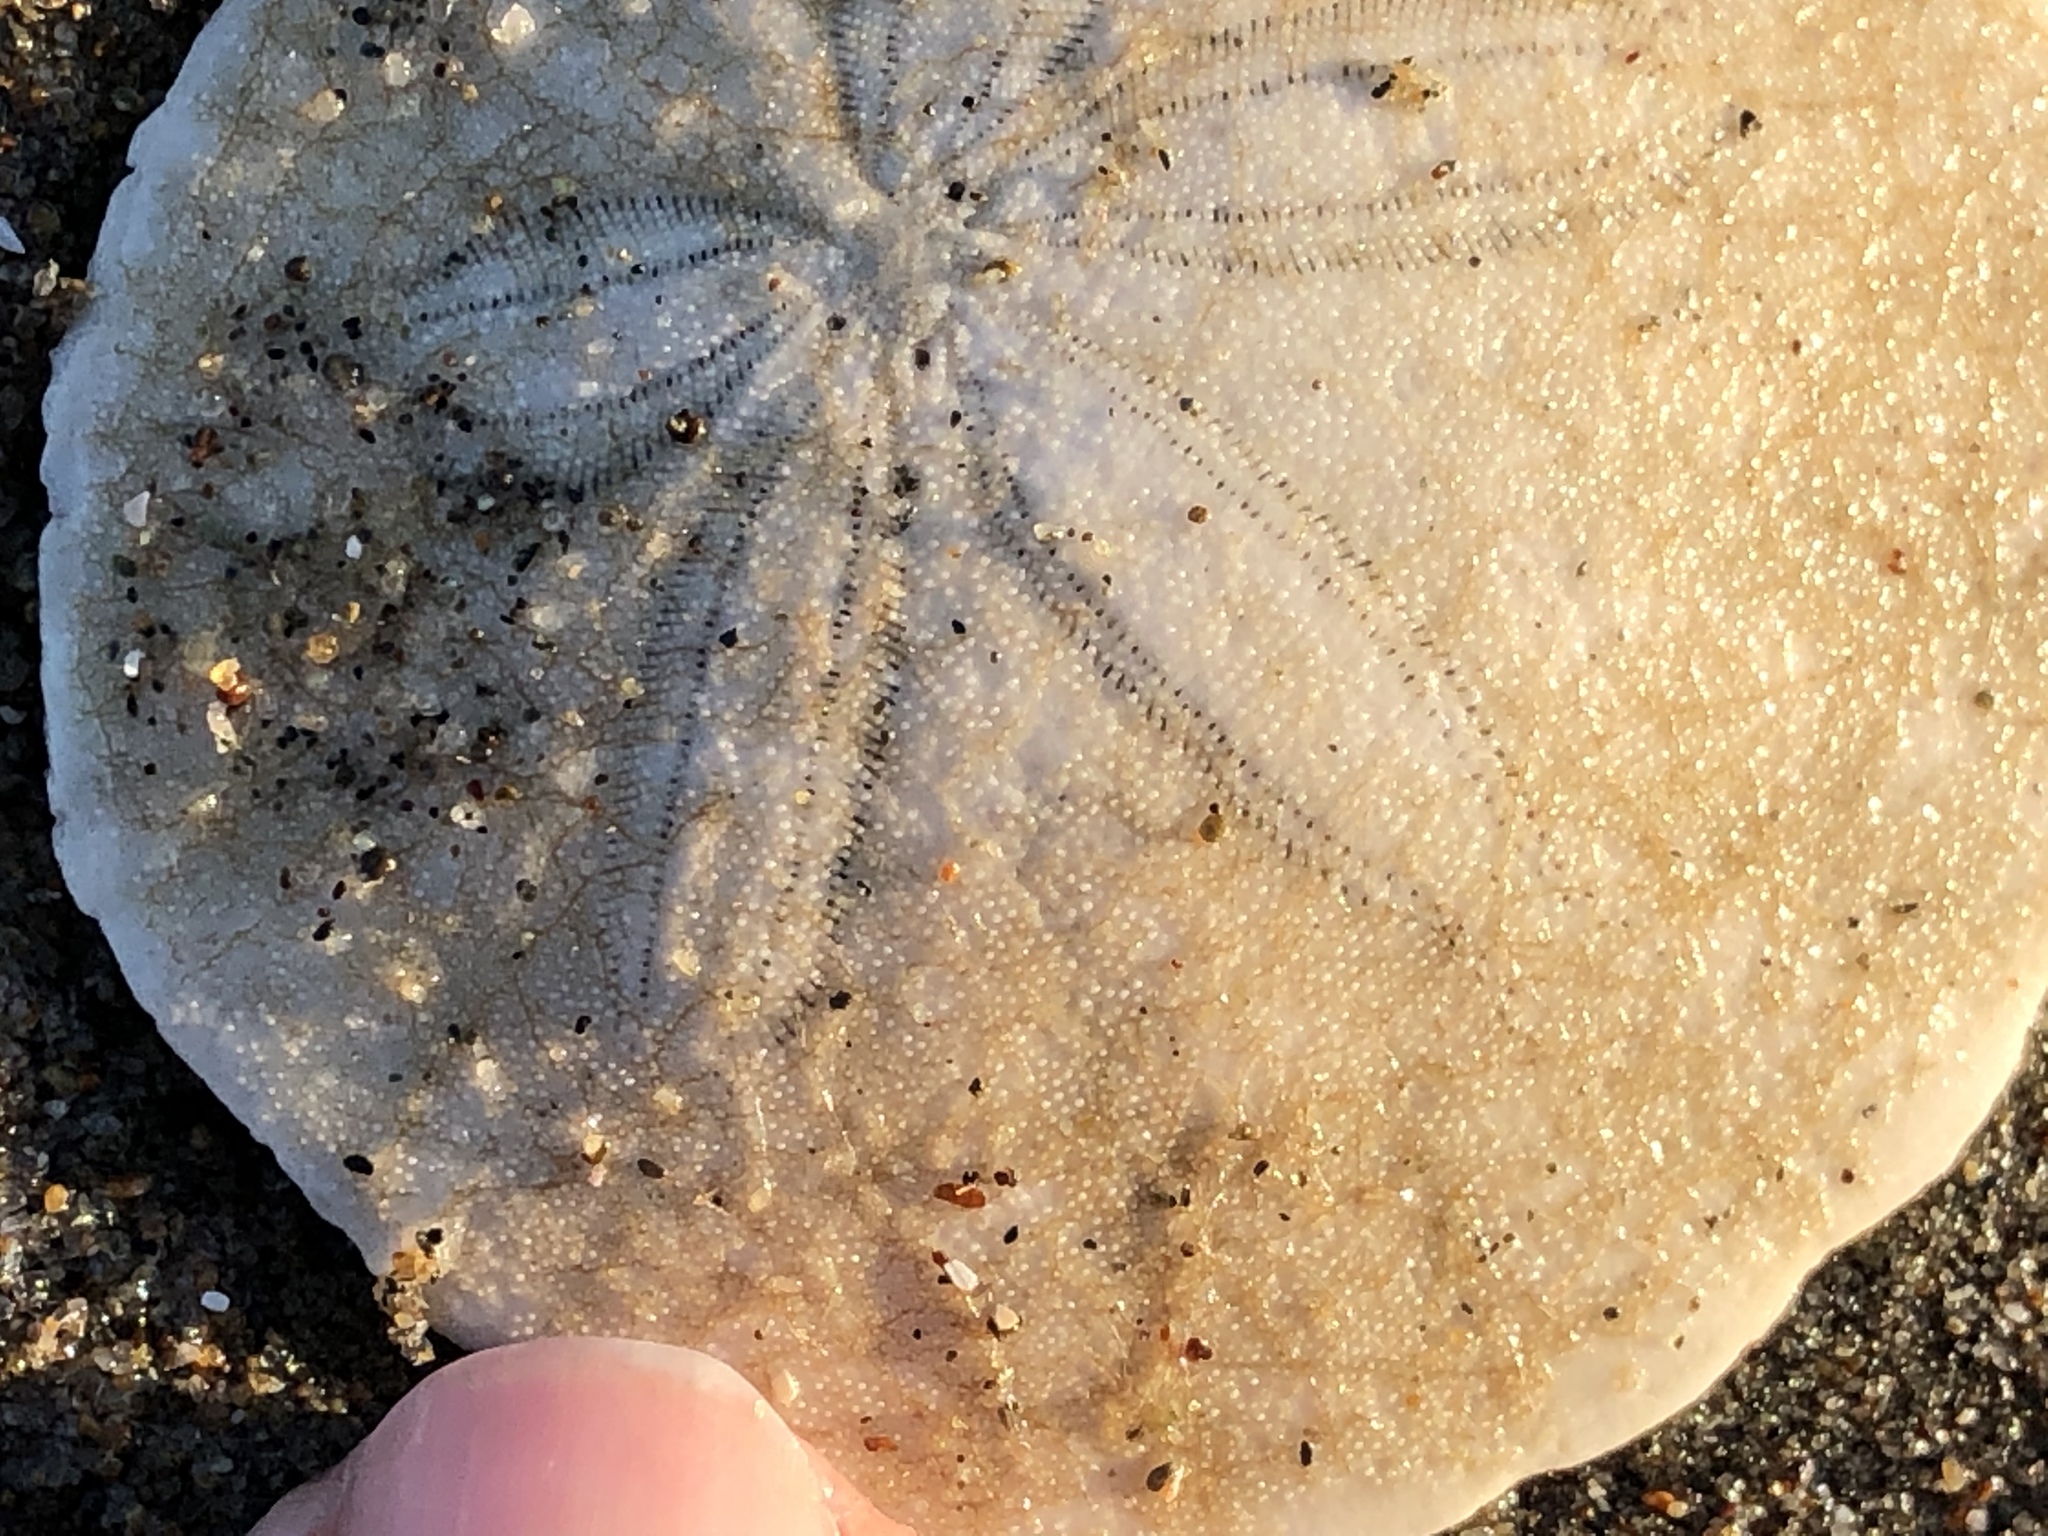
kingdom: Animalia
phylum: Echinodermata
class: Echinoidea
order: Echinolampadacea
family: Dendrasteridae
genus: Dendraster
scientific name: Dendraster excentricus
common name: Eccentric sand dollar sea urchin
